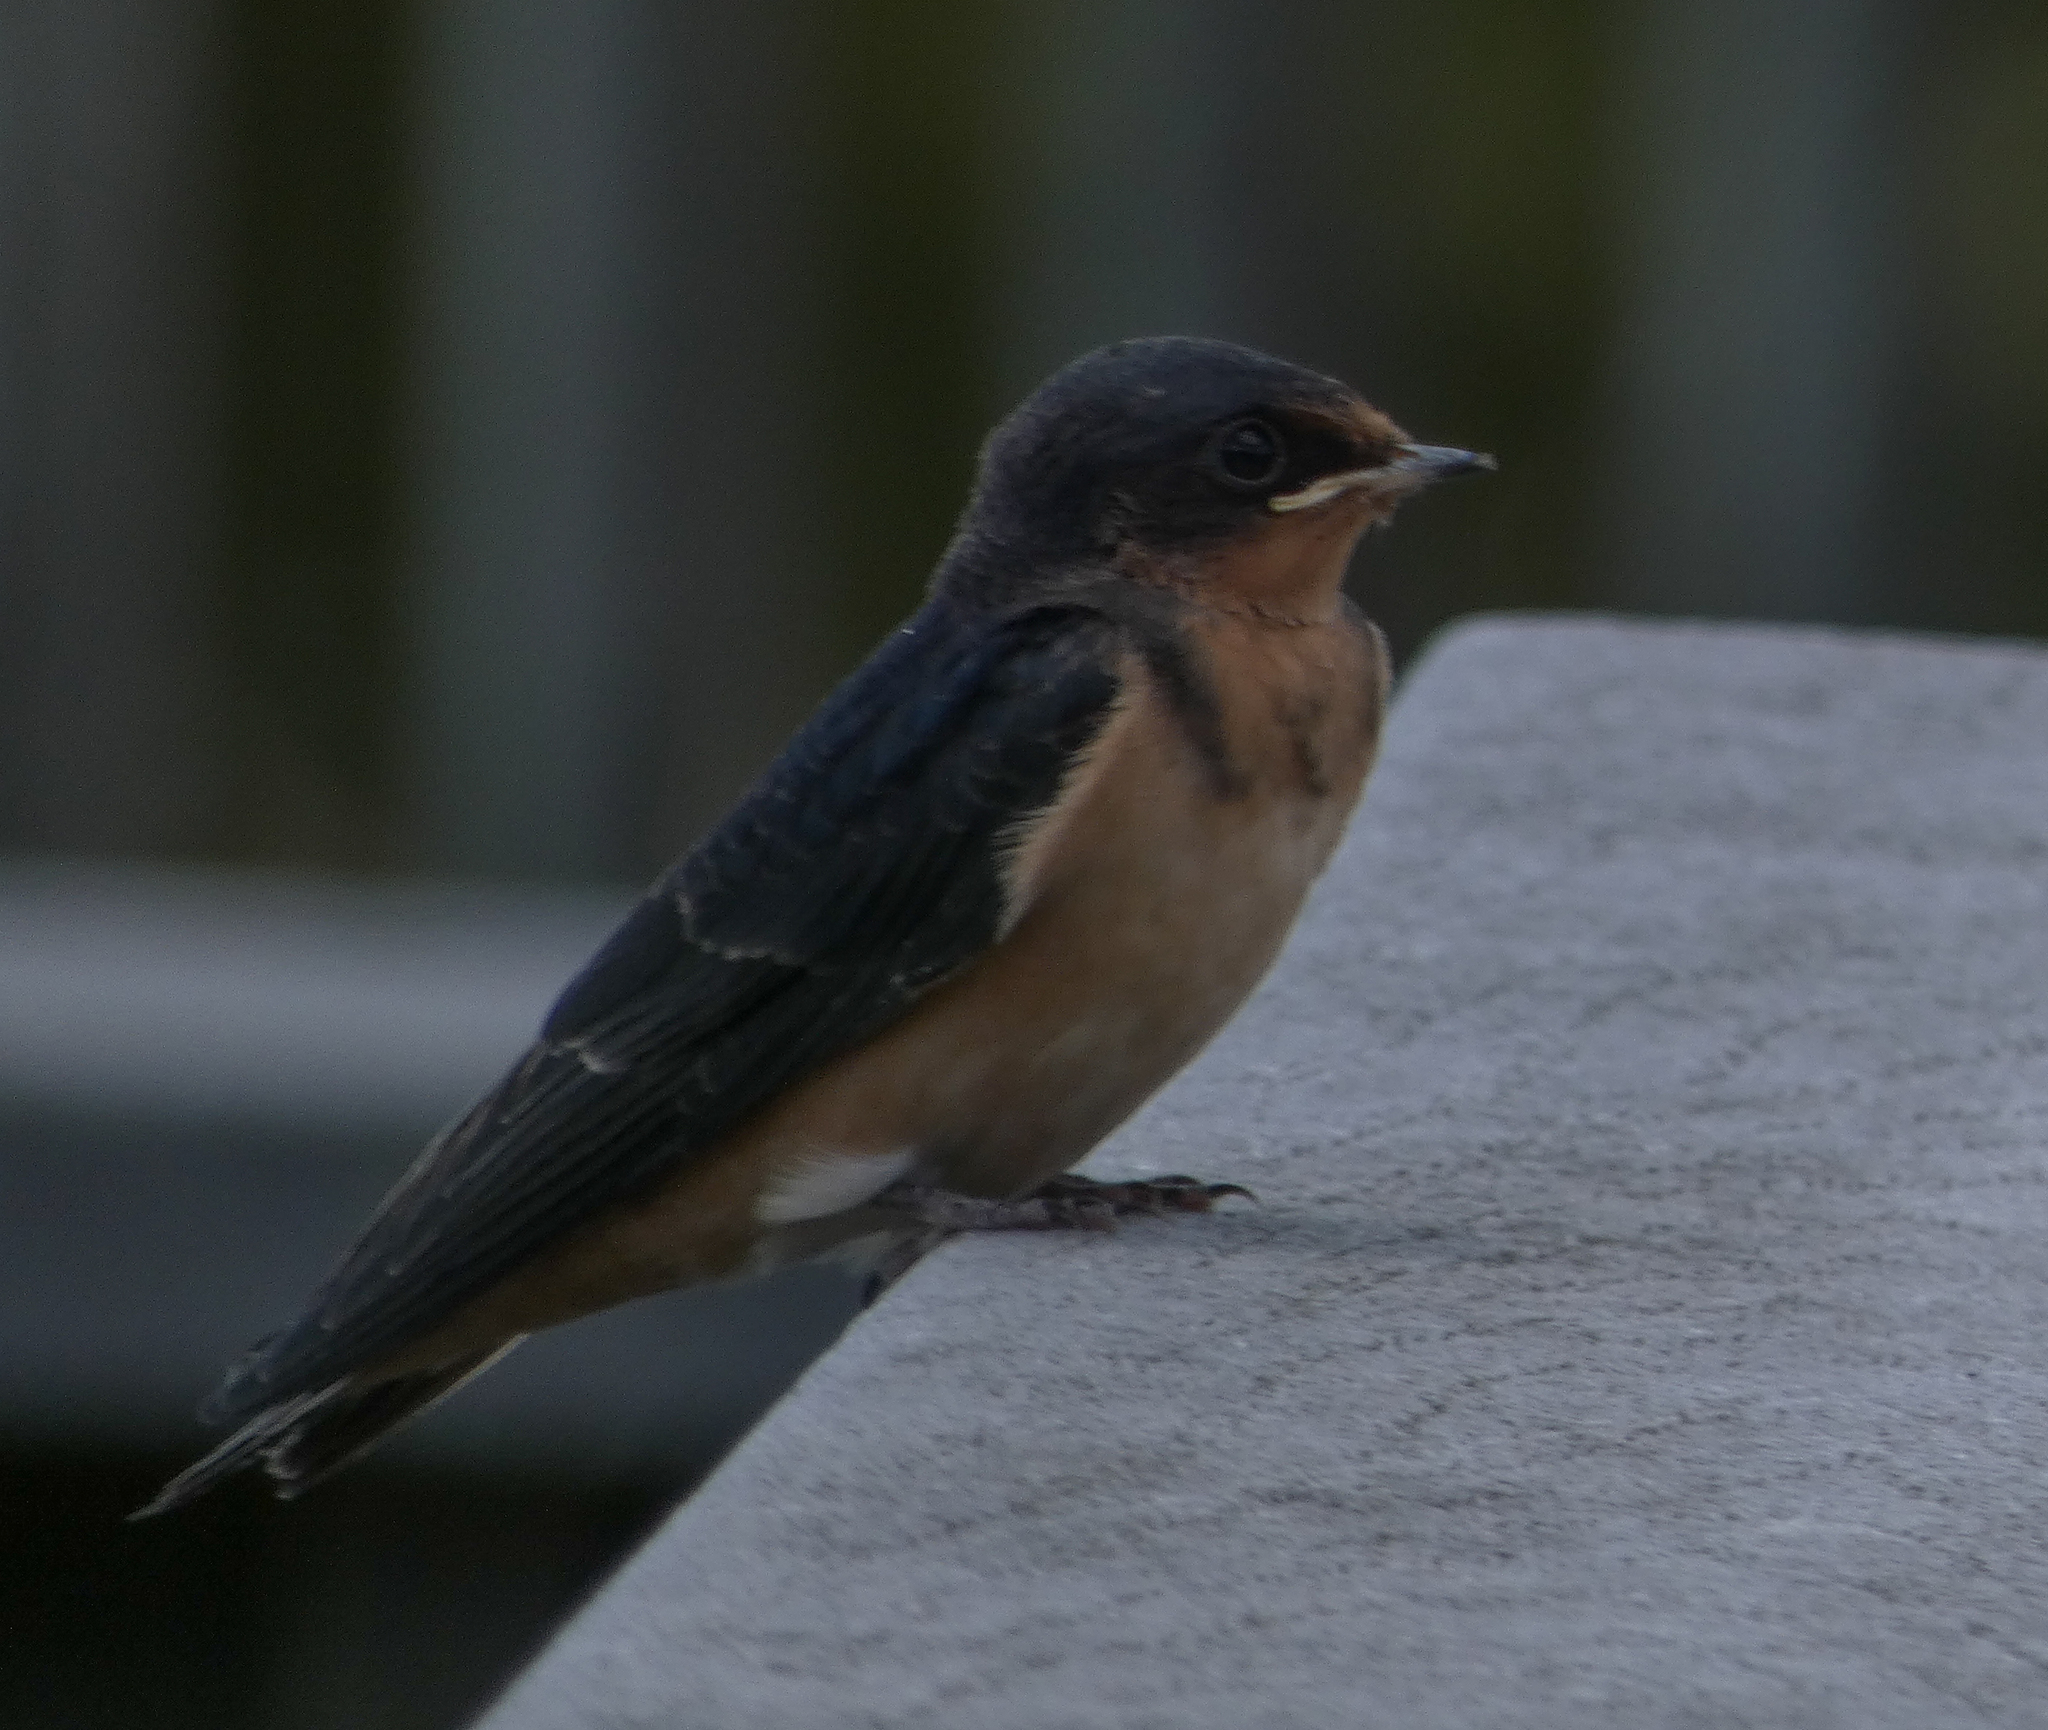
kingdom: Animalia
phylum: Chordata
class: Aves
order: Passeriformes
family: Hirundinidae
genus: Hirundo
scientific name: Hirundo rustica
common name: Barn swallow
